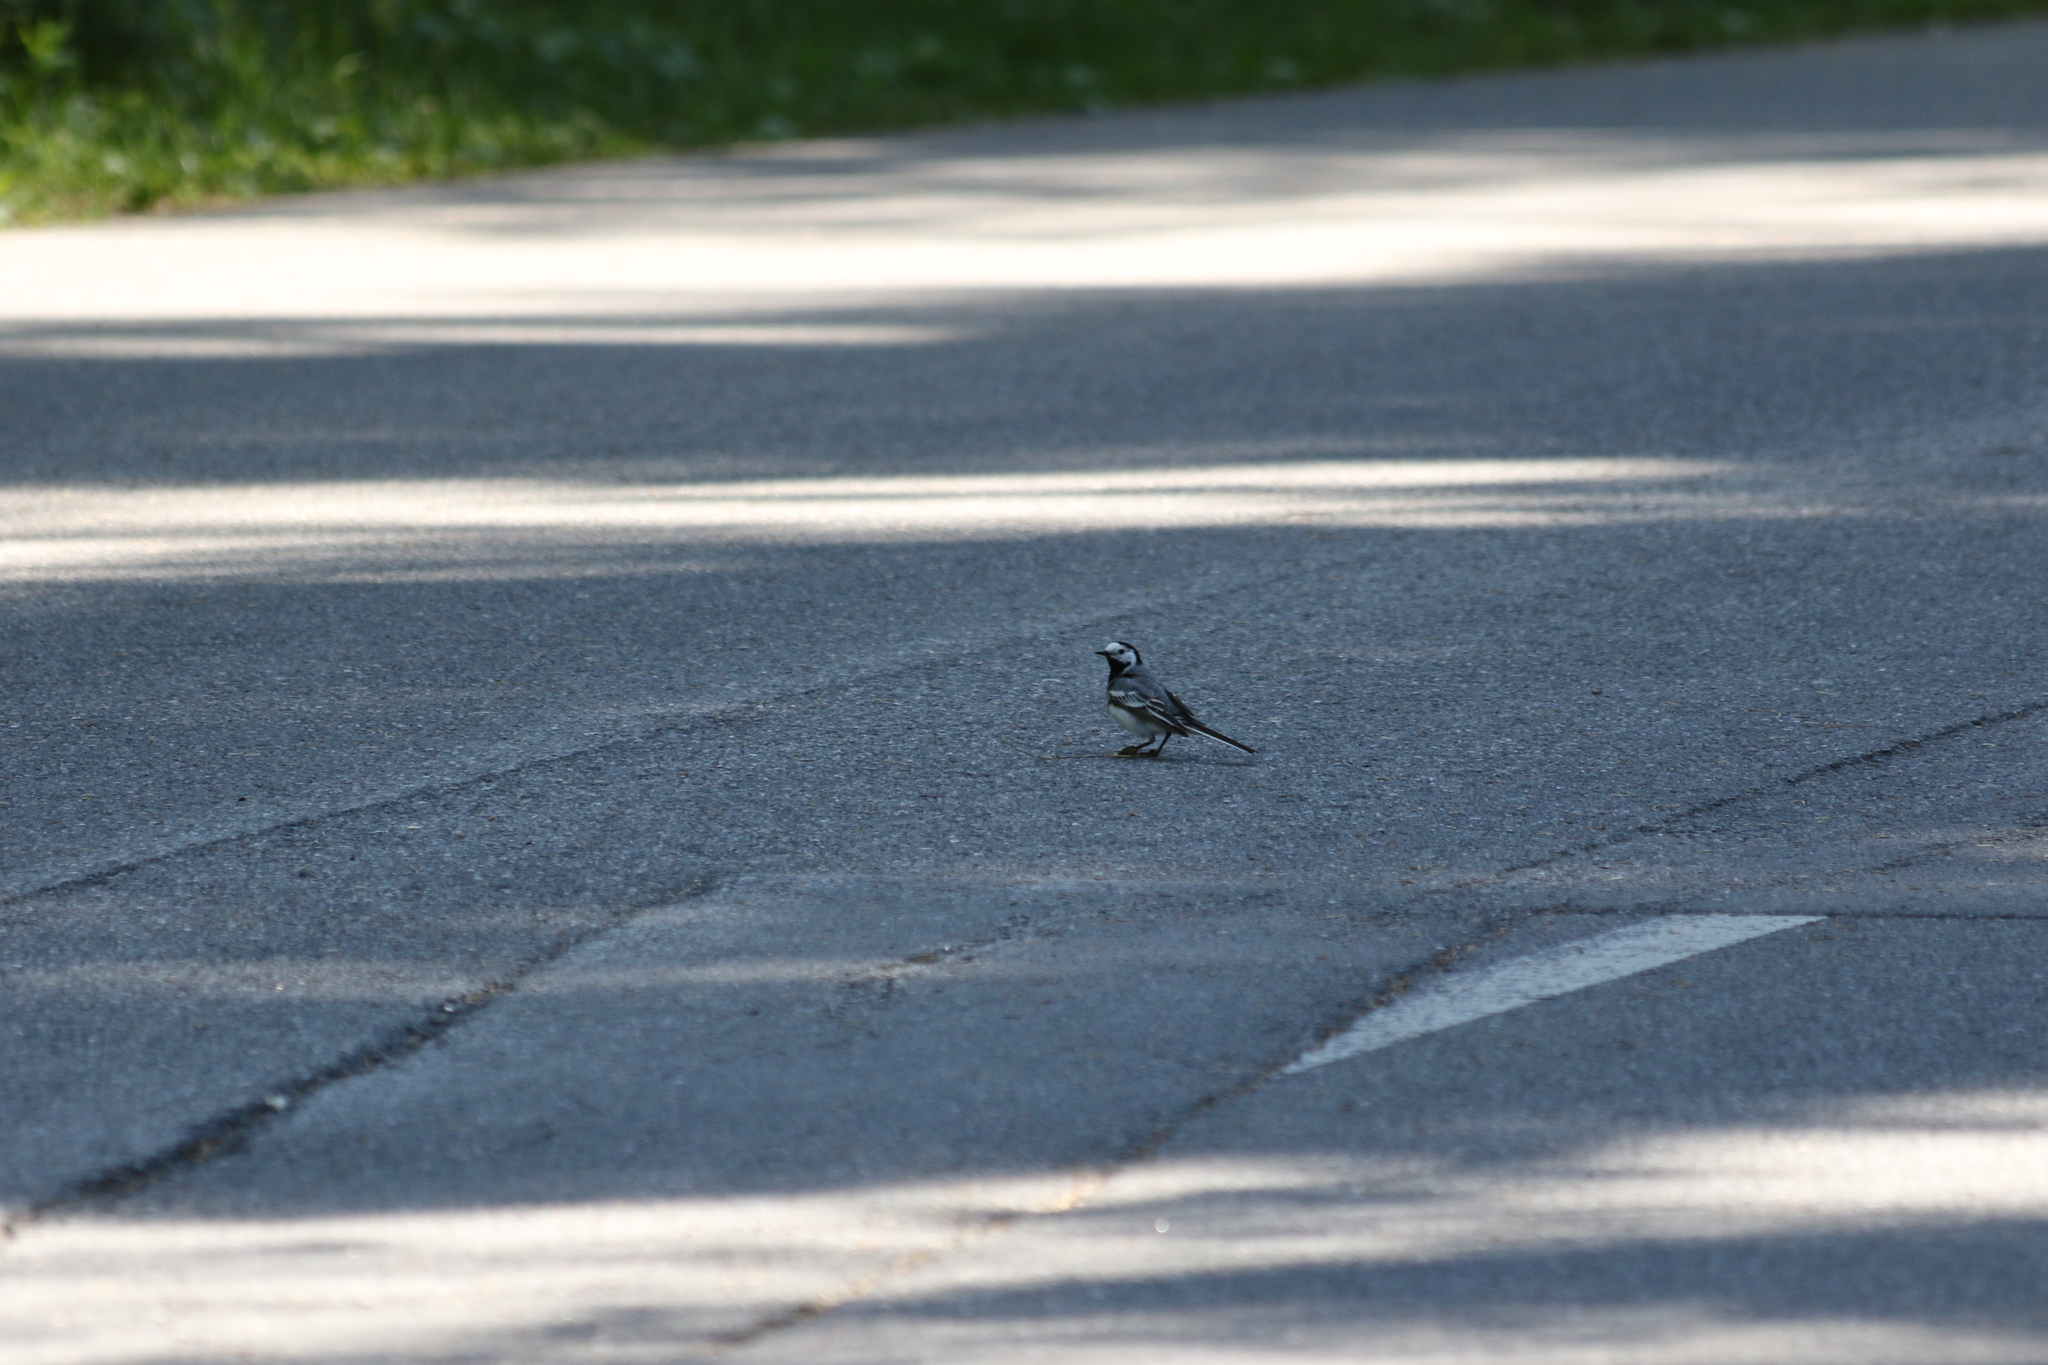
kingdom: Animalia
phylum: Chordata
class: Aves
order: Passeriformes
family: Motacillidae
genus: Motacilla
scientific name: Motacilla alba
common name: White wagtail
